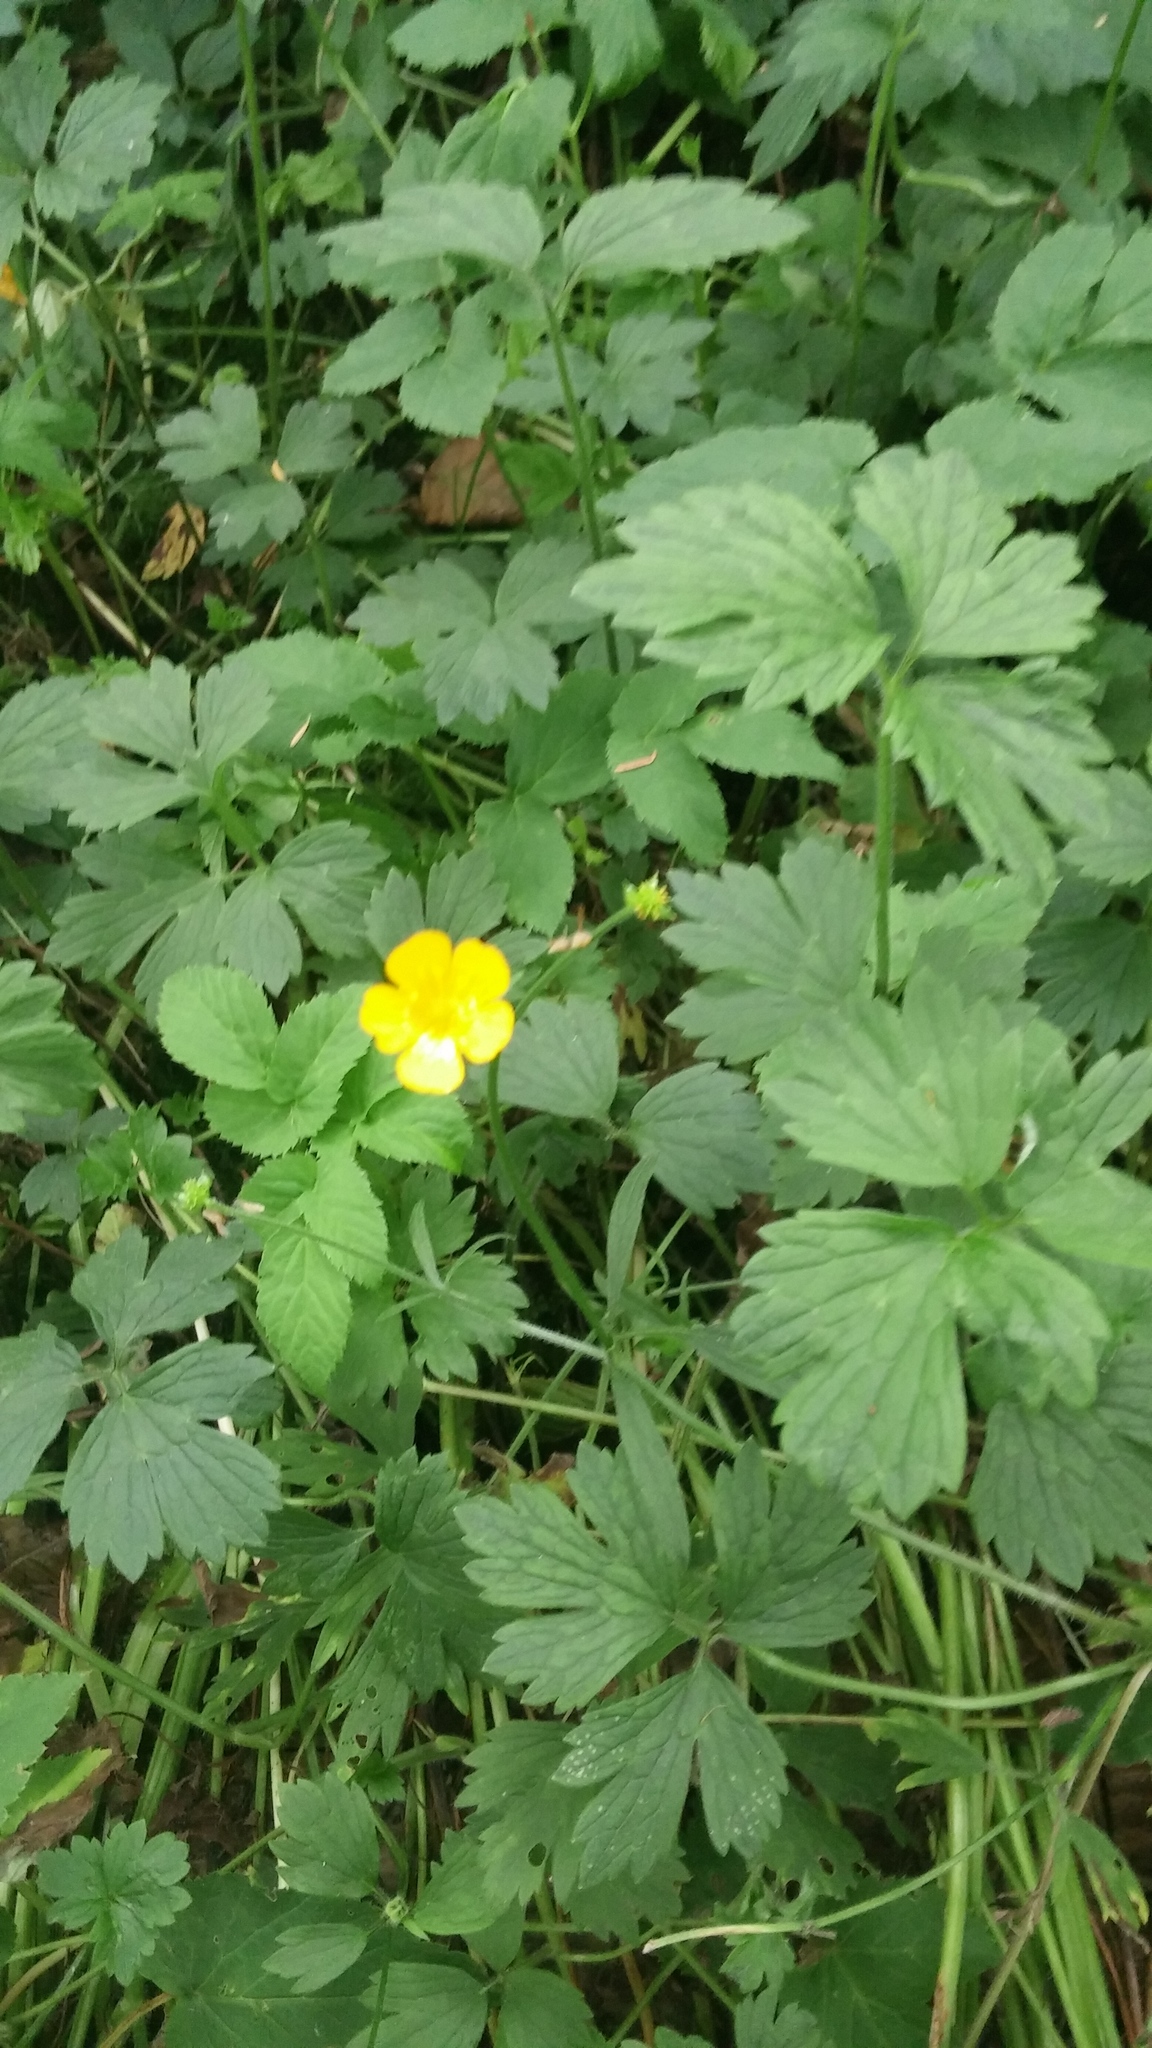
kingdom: Plantae
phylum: Tracheophyta
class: Magnoliopsida
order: Ranunculales
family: Ranunculaceae
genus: Ranunculus
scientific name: Ranunculus repens
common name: Creeping buttercup
